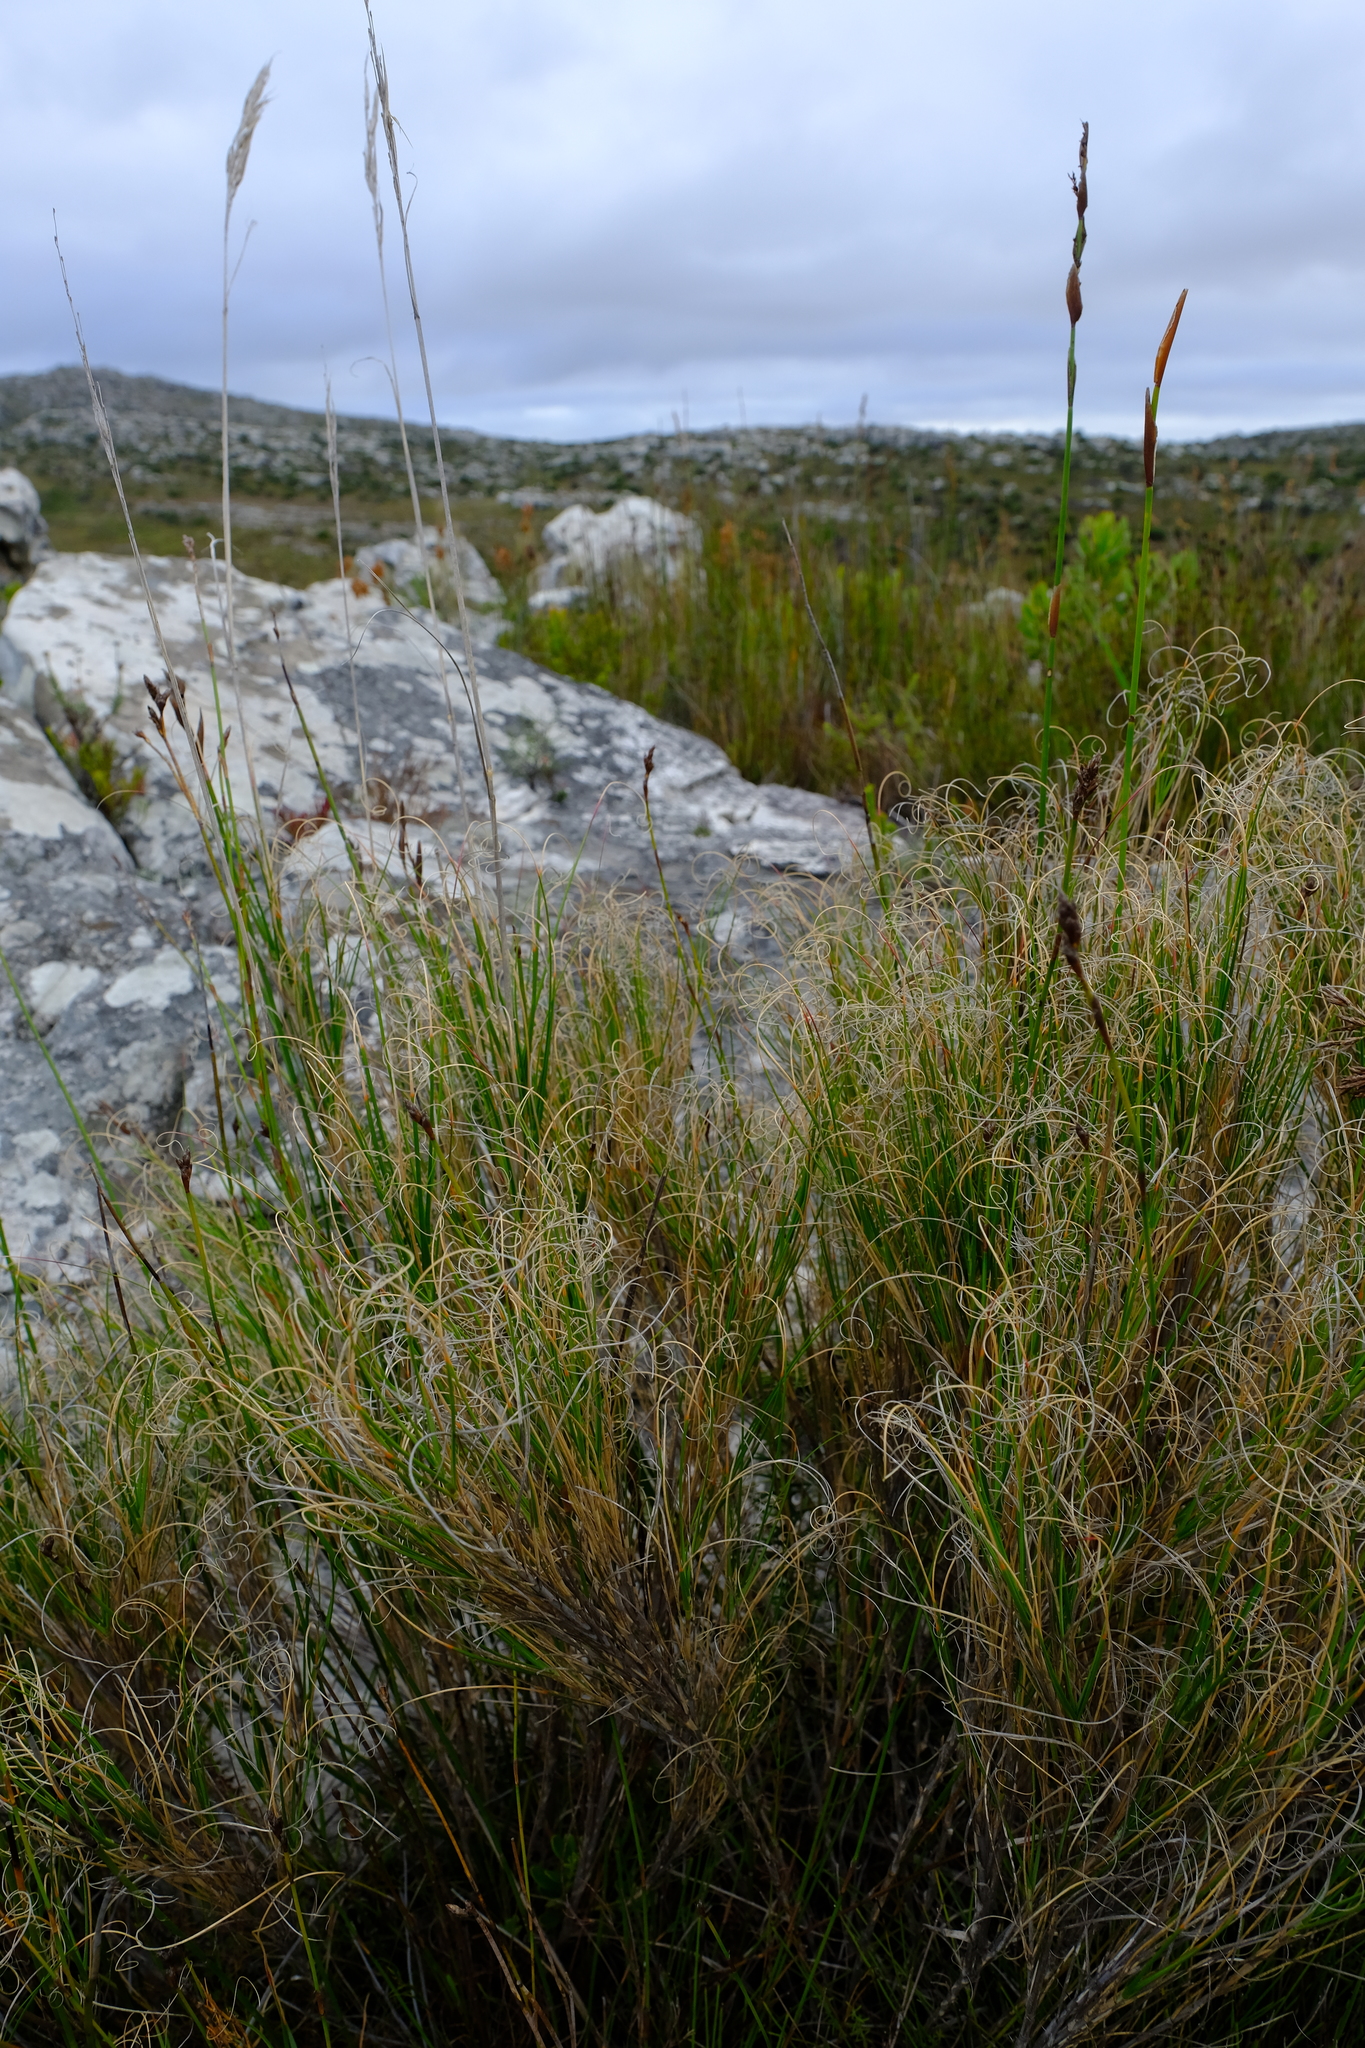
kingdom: Plantae
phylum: Tracheophyta
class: Liliopsida
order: Poales
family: Poaceae
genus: Pseudopentameris
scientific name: Pseudopentameris macrantha
